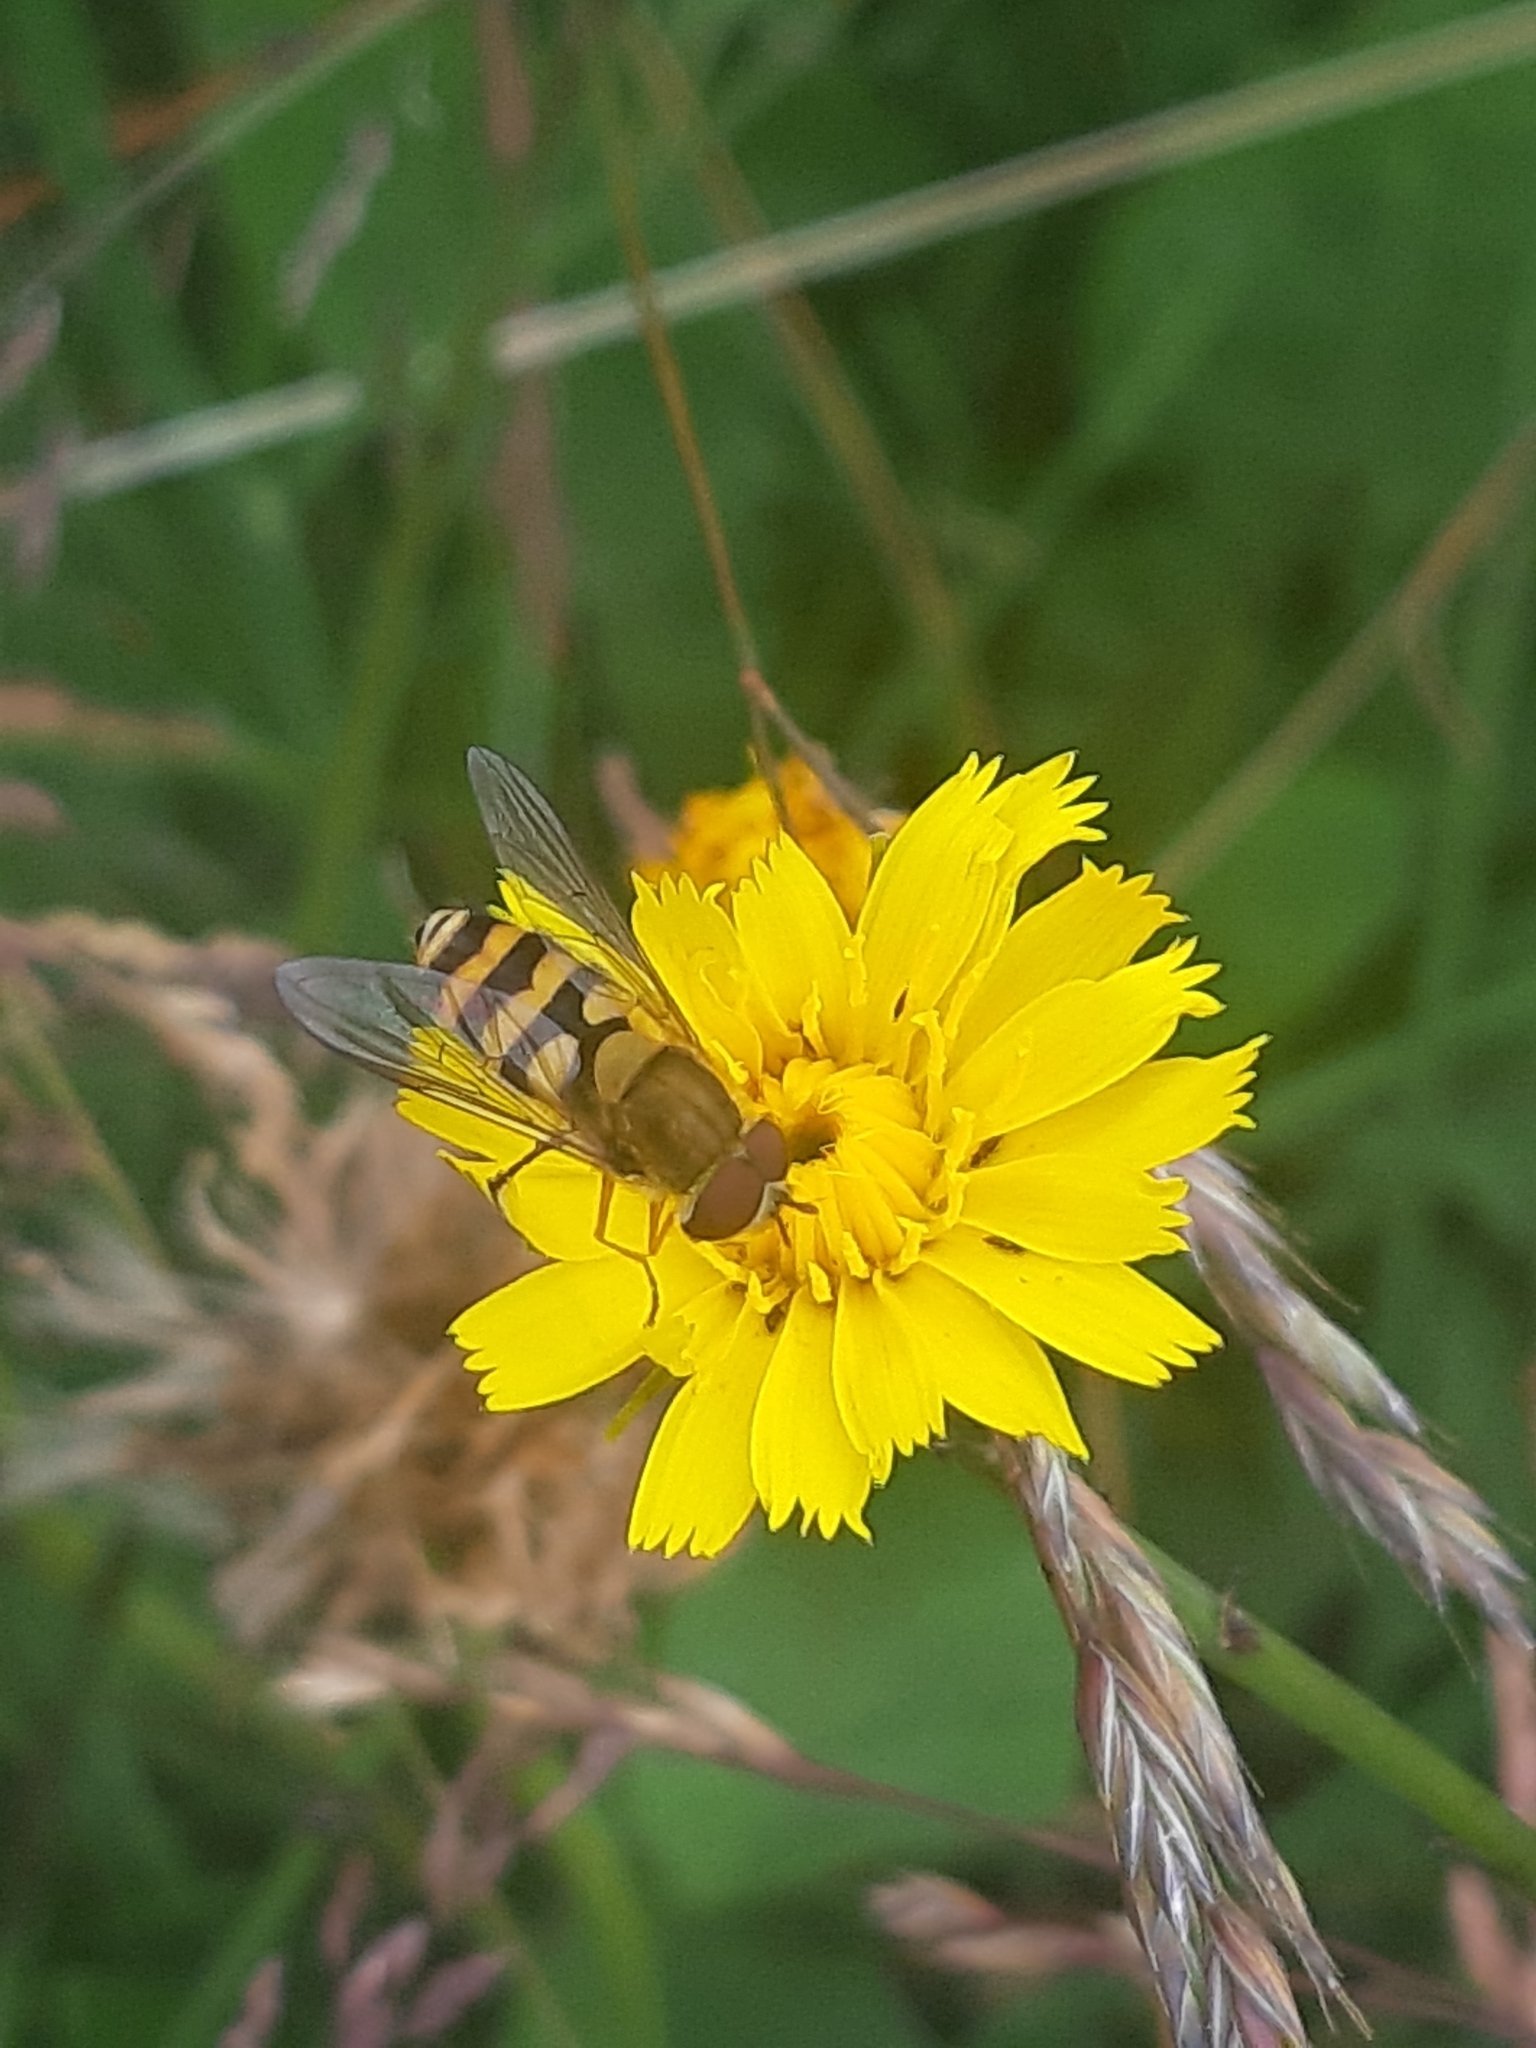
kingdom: Animalia
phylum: Arthropoda
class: Insecta
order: Diptera
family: Syrphidae
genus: Syrphus
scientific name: Syrphus
